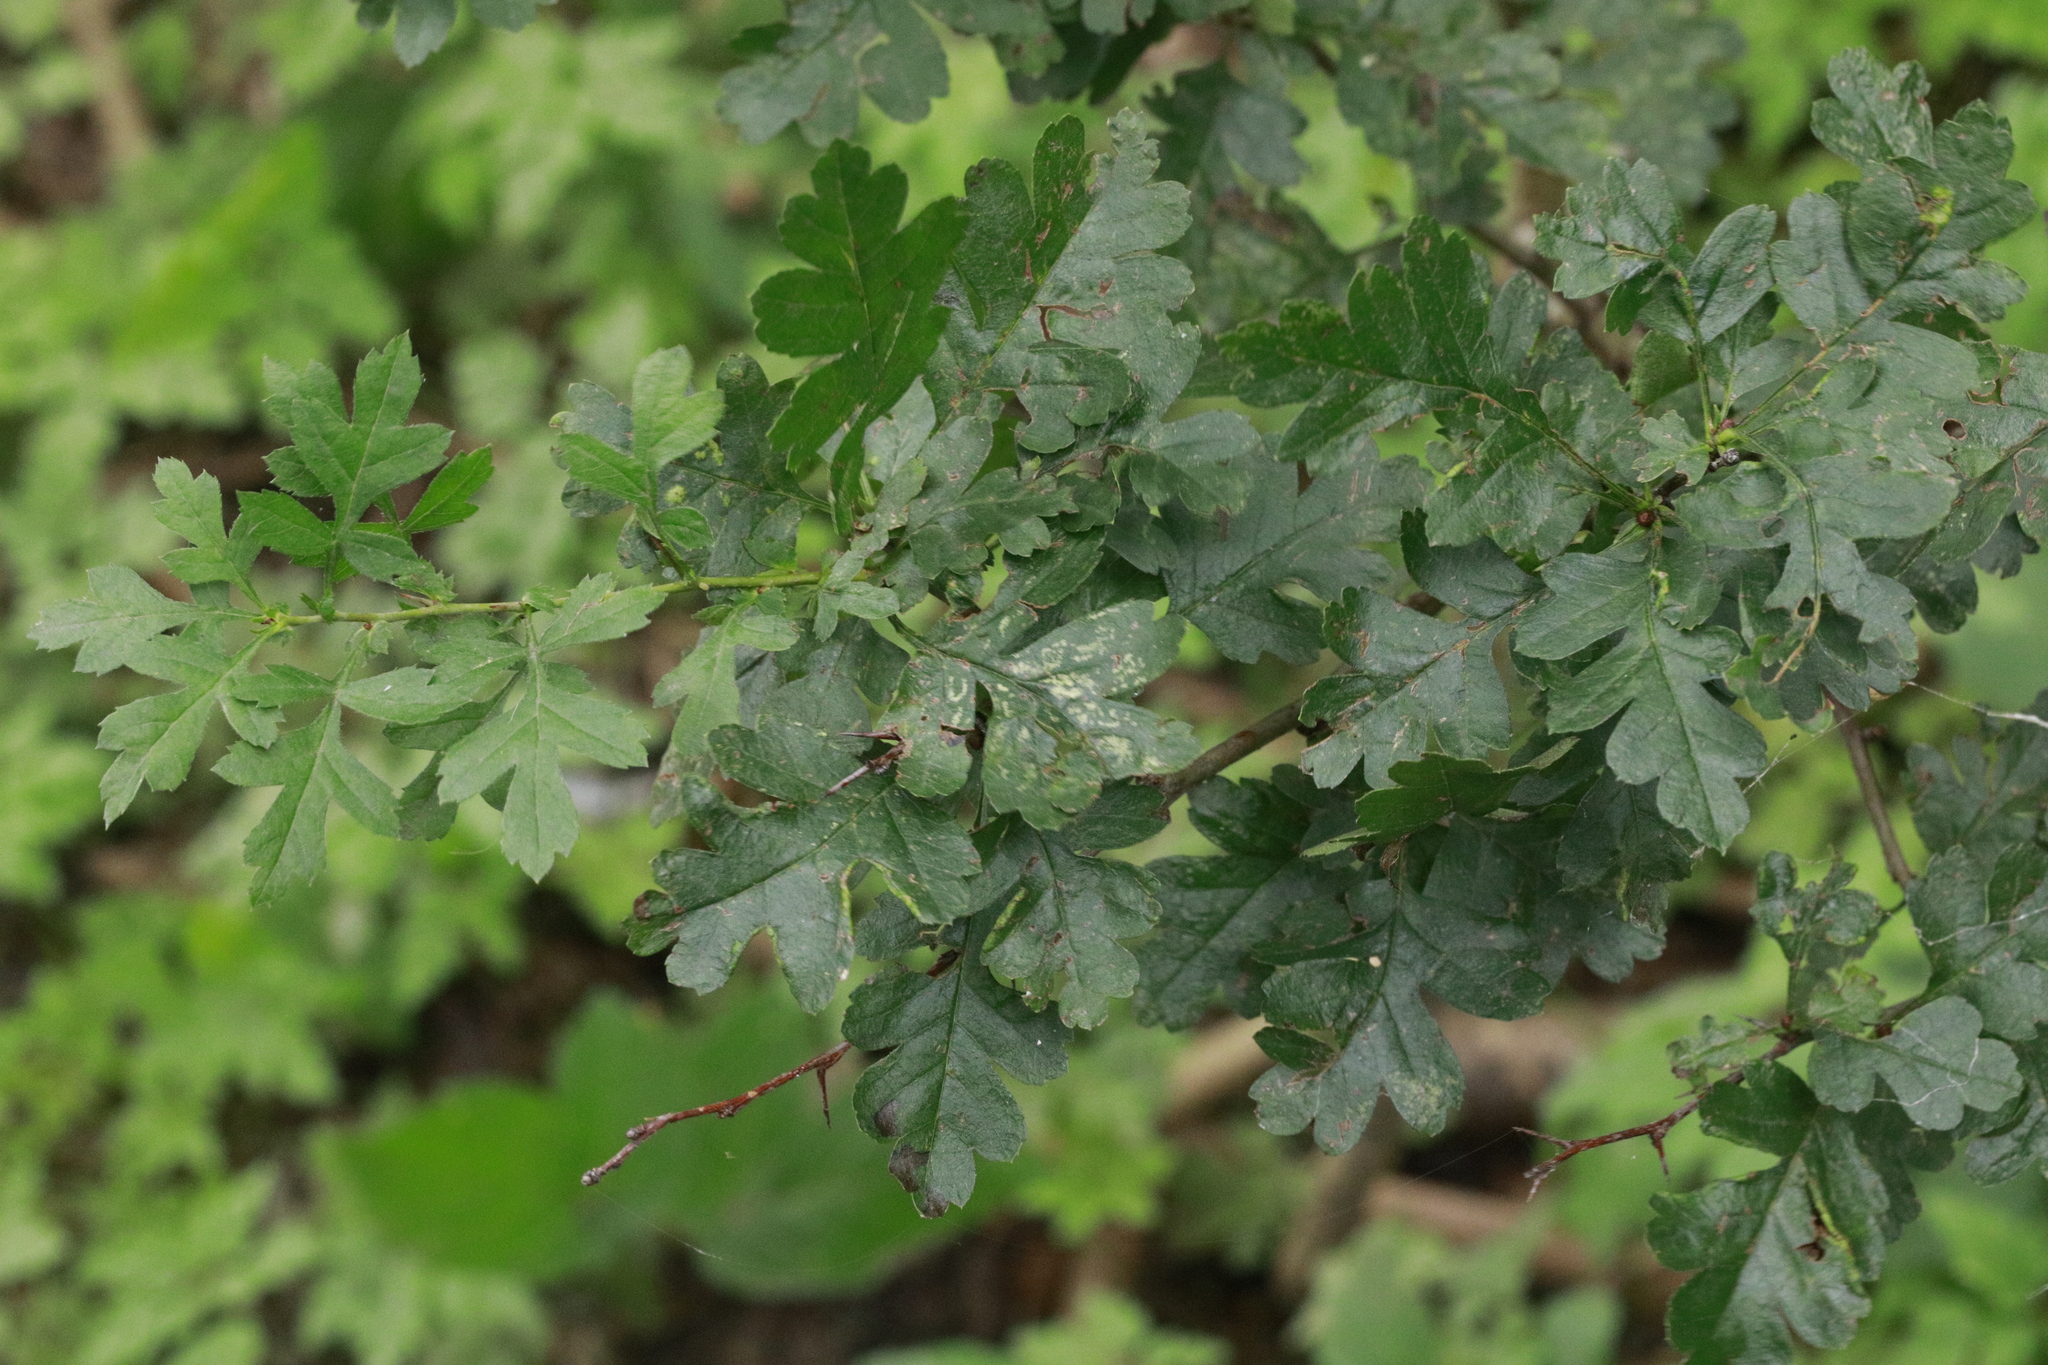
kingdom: Plantae
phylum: Tracheophyta
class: Magnoliopsida
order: Rosales
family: Rosaceae
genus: Crataegus
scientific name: Crataegus monogyna
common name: Hawthorn
